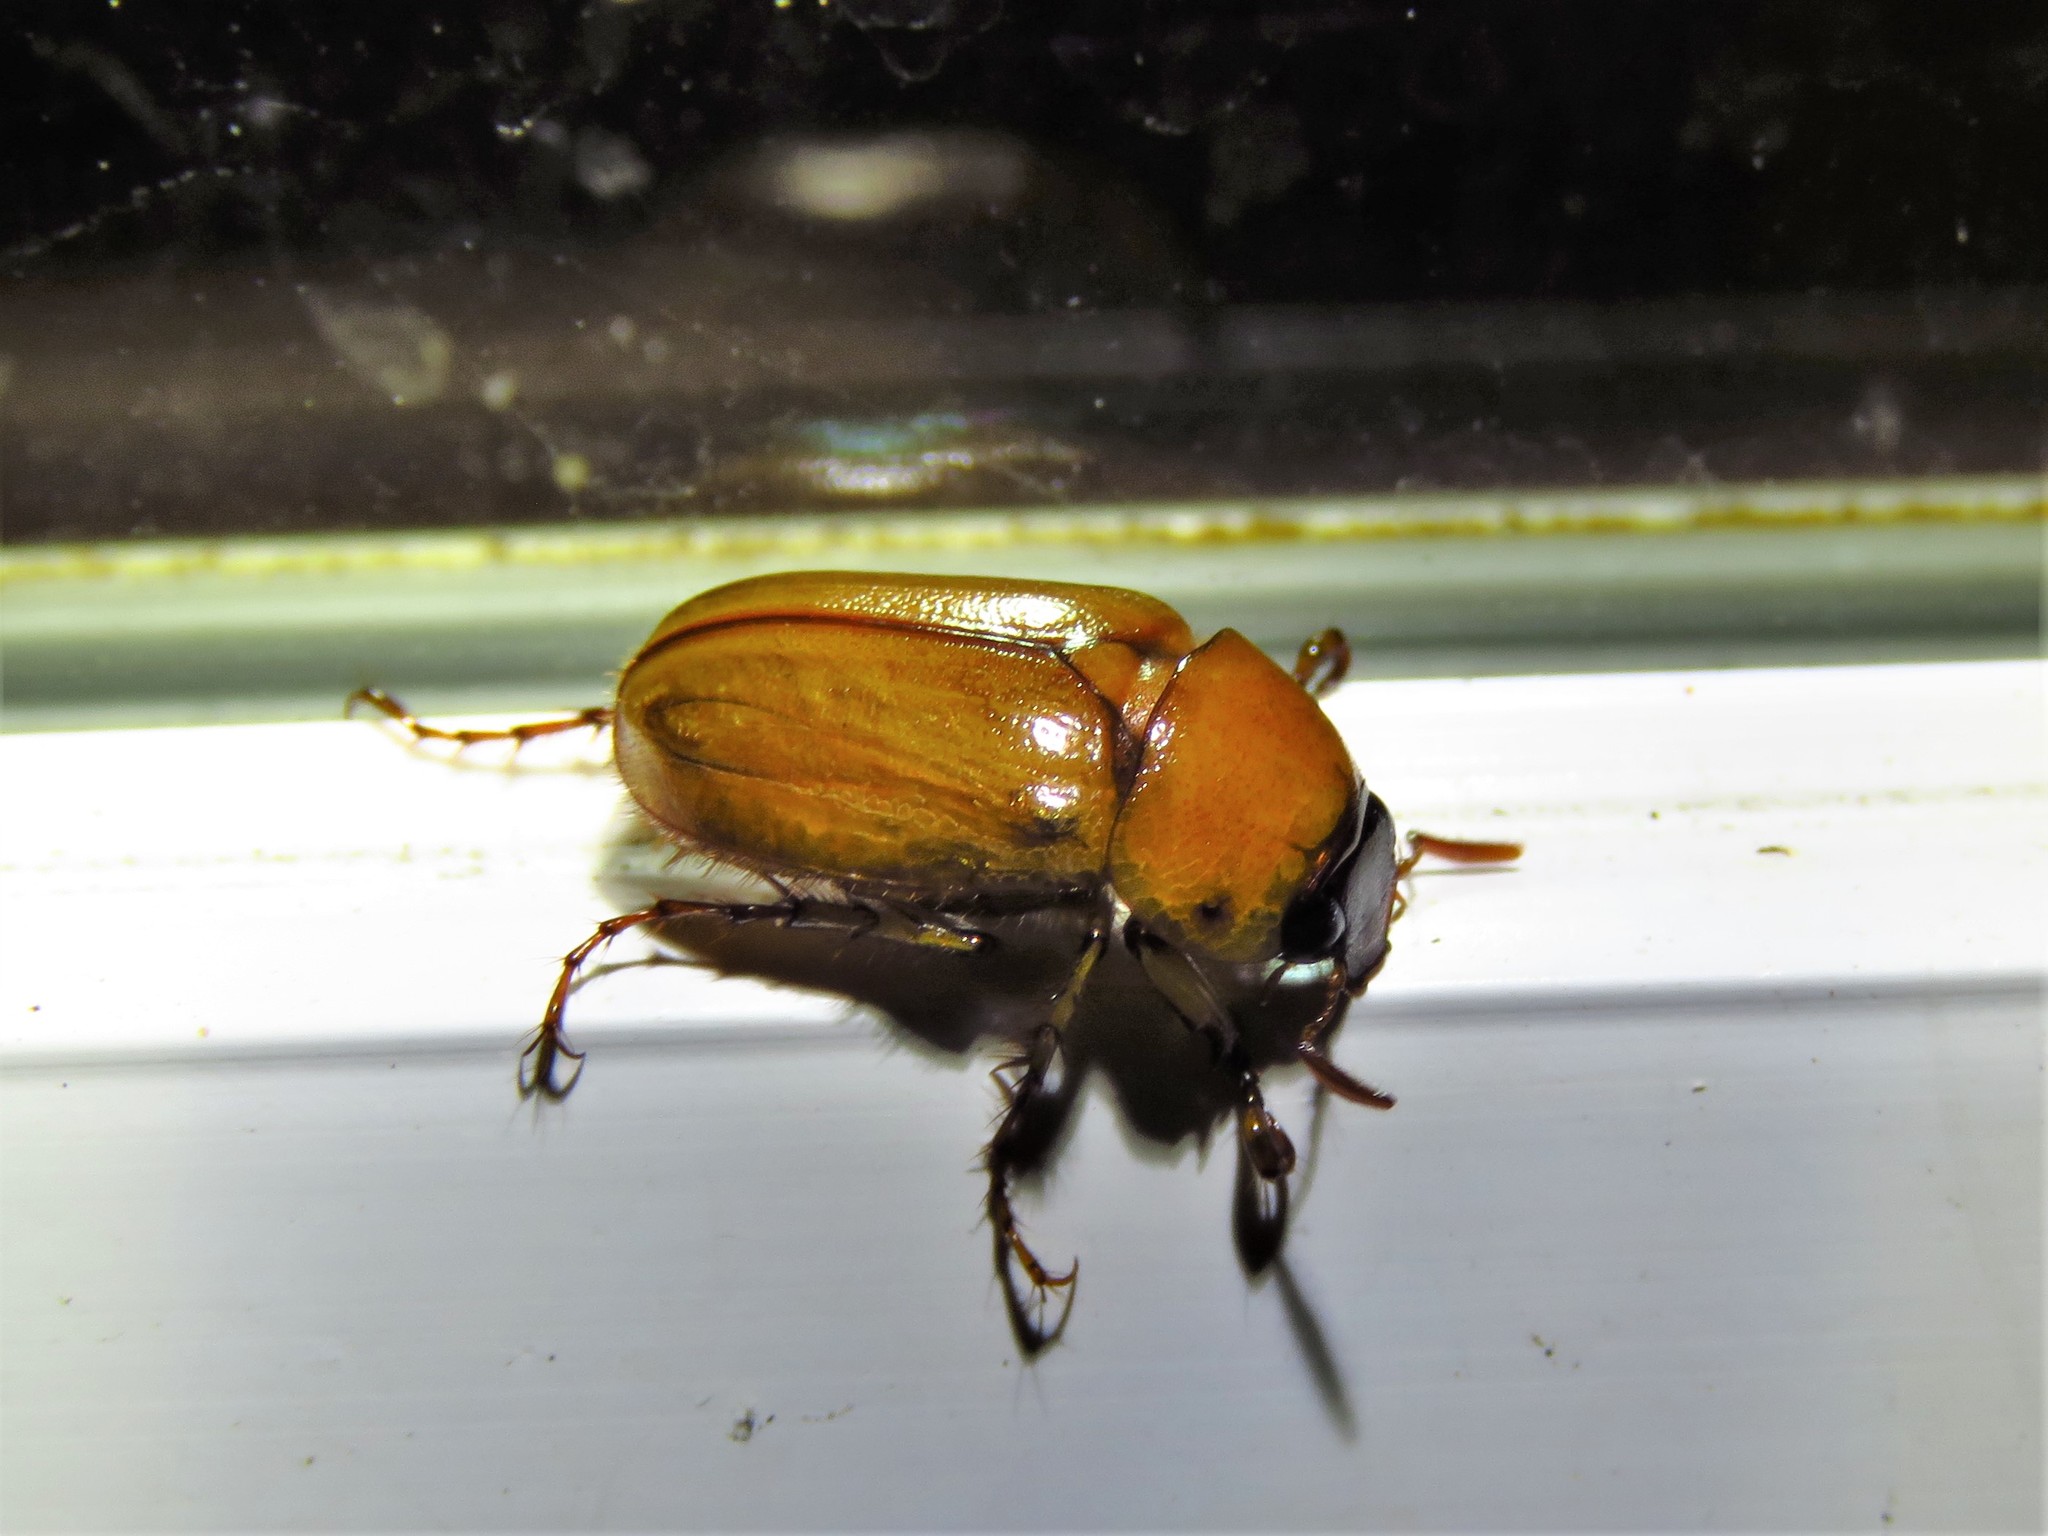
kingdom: Animalia
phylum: Arthropoda
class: Insecta
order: Coleoptera
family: Scarabaeidae
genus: Cyclocephala
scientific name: Cyclocephala lurida
